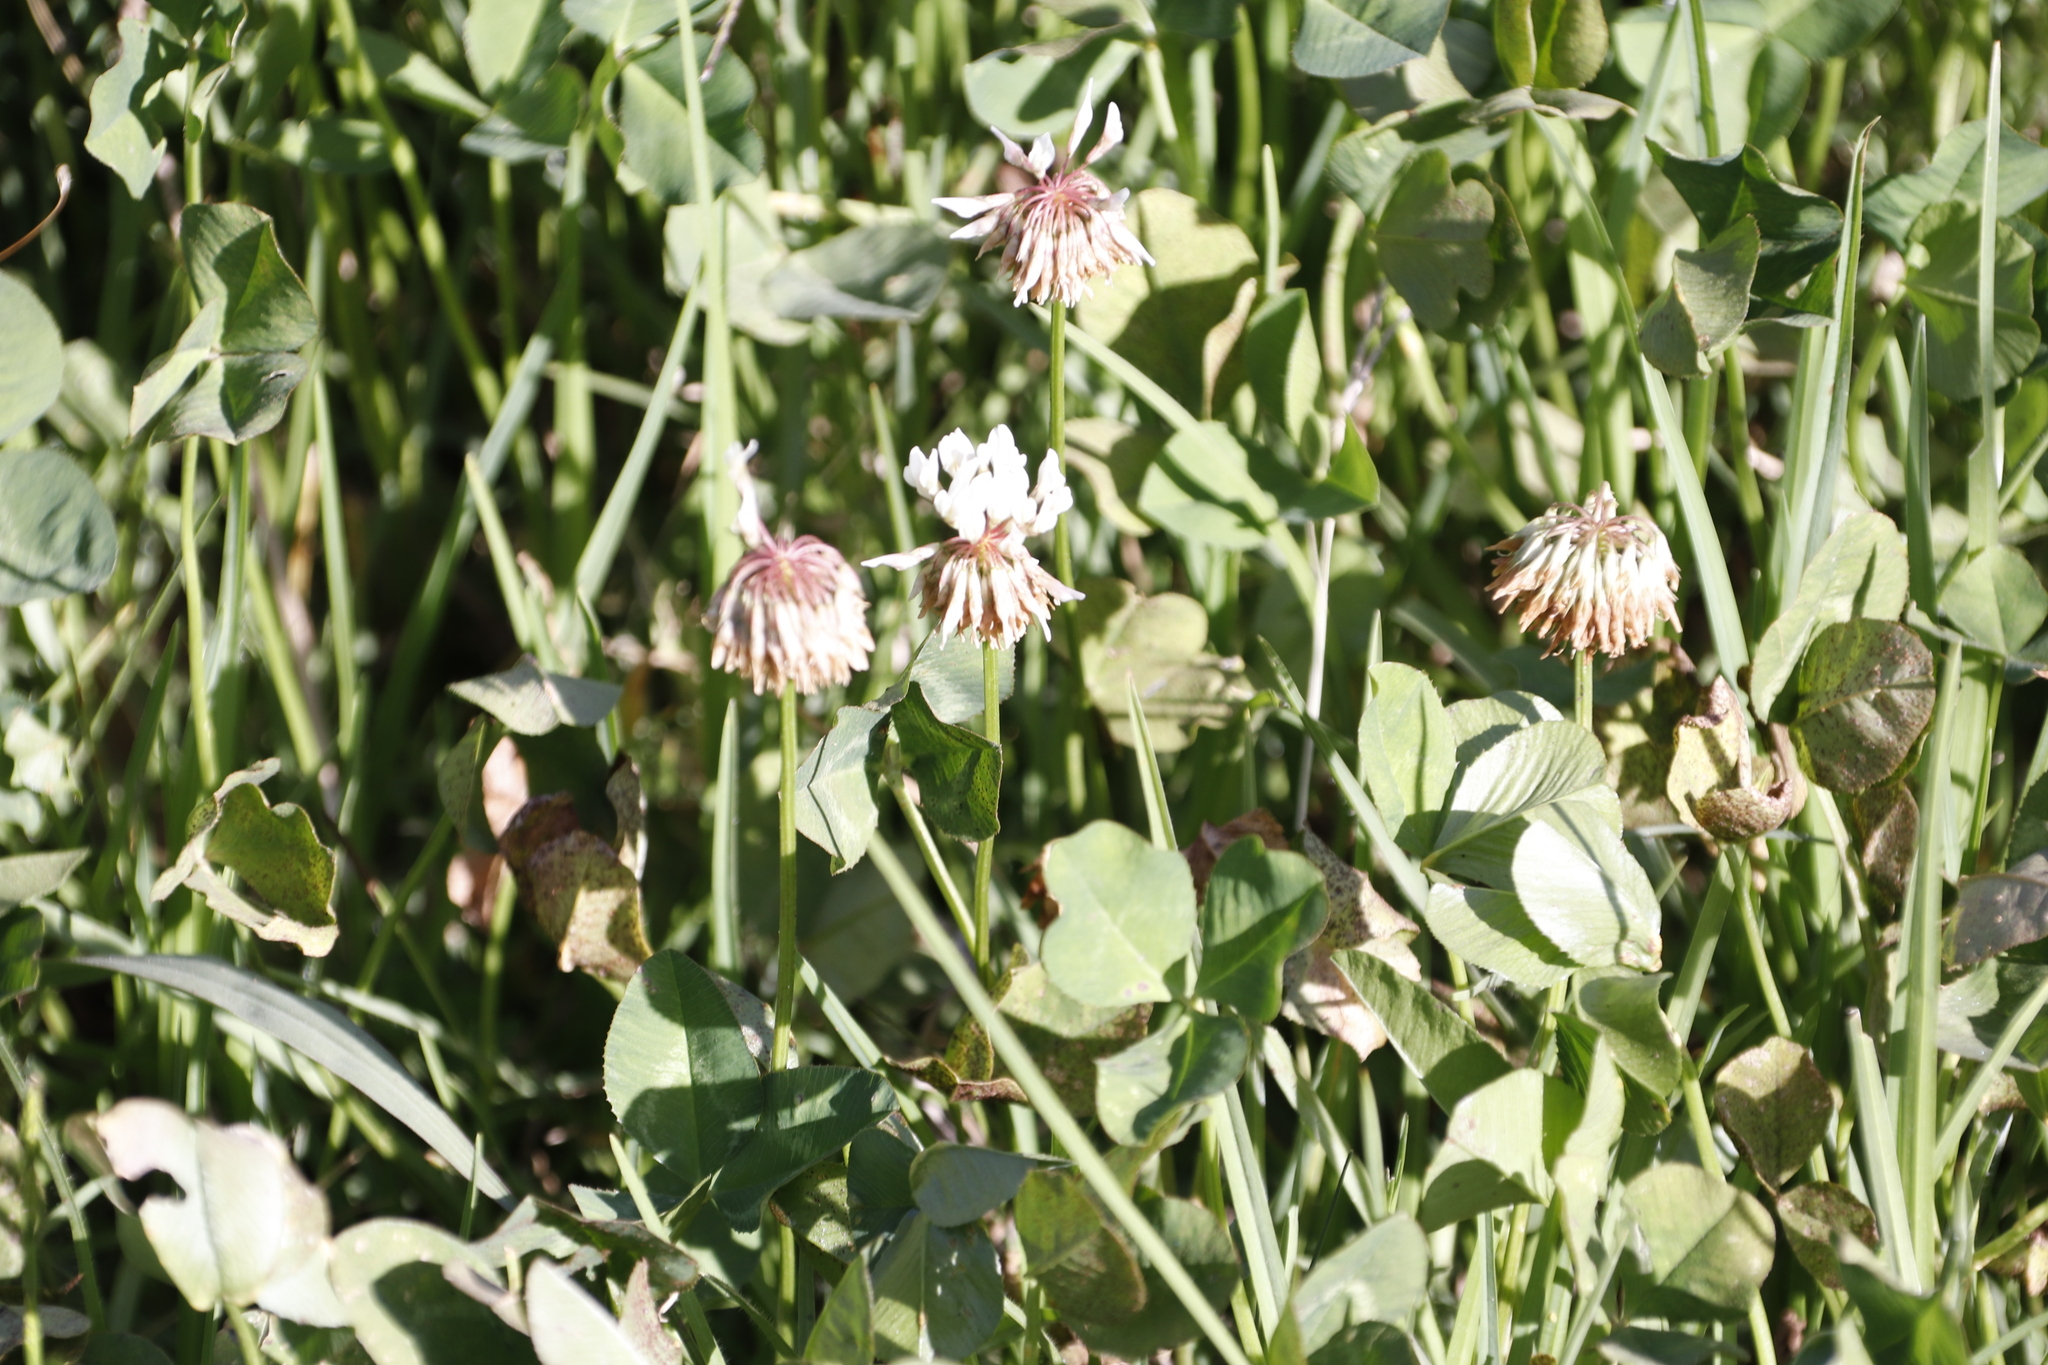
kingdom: Plantae
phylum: Tracheophyta
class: Magnoliopsida
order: Fabales
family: Fabaceae
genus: Trifolium
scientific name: Trifolium repens
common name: White clover
